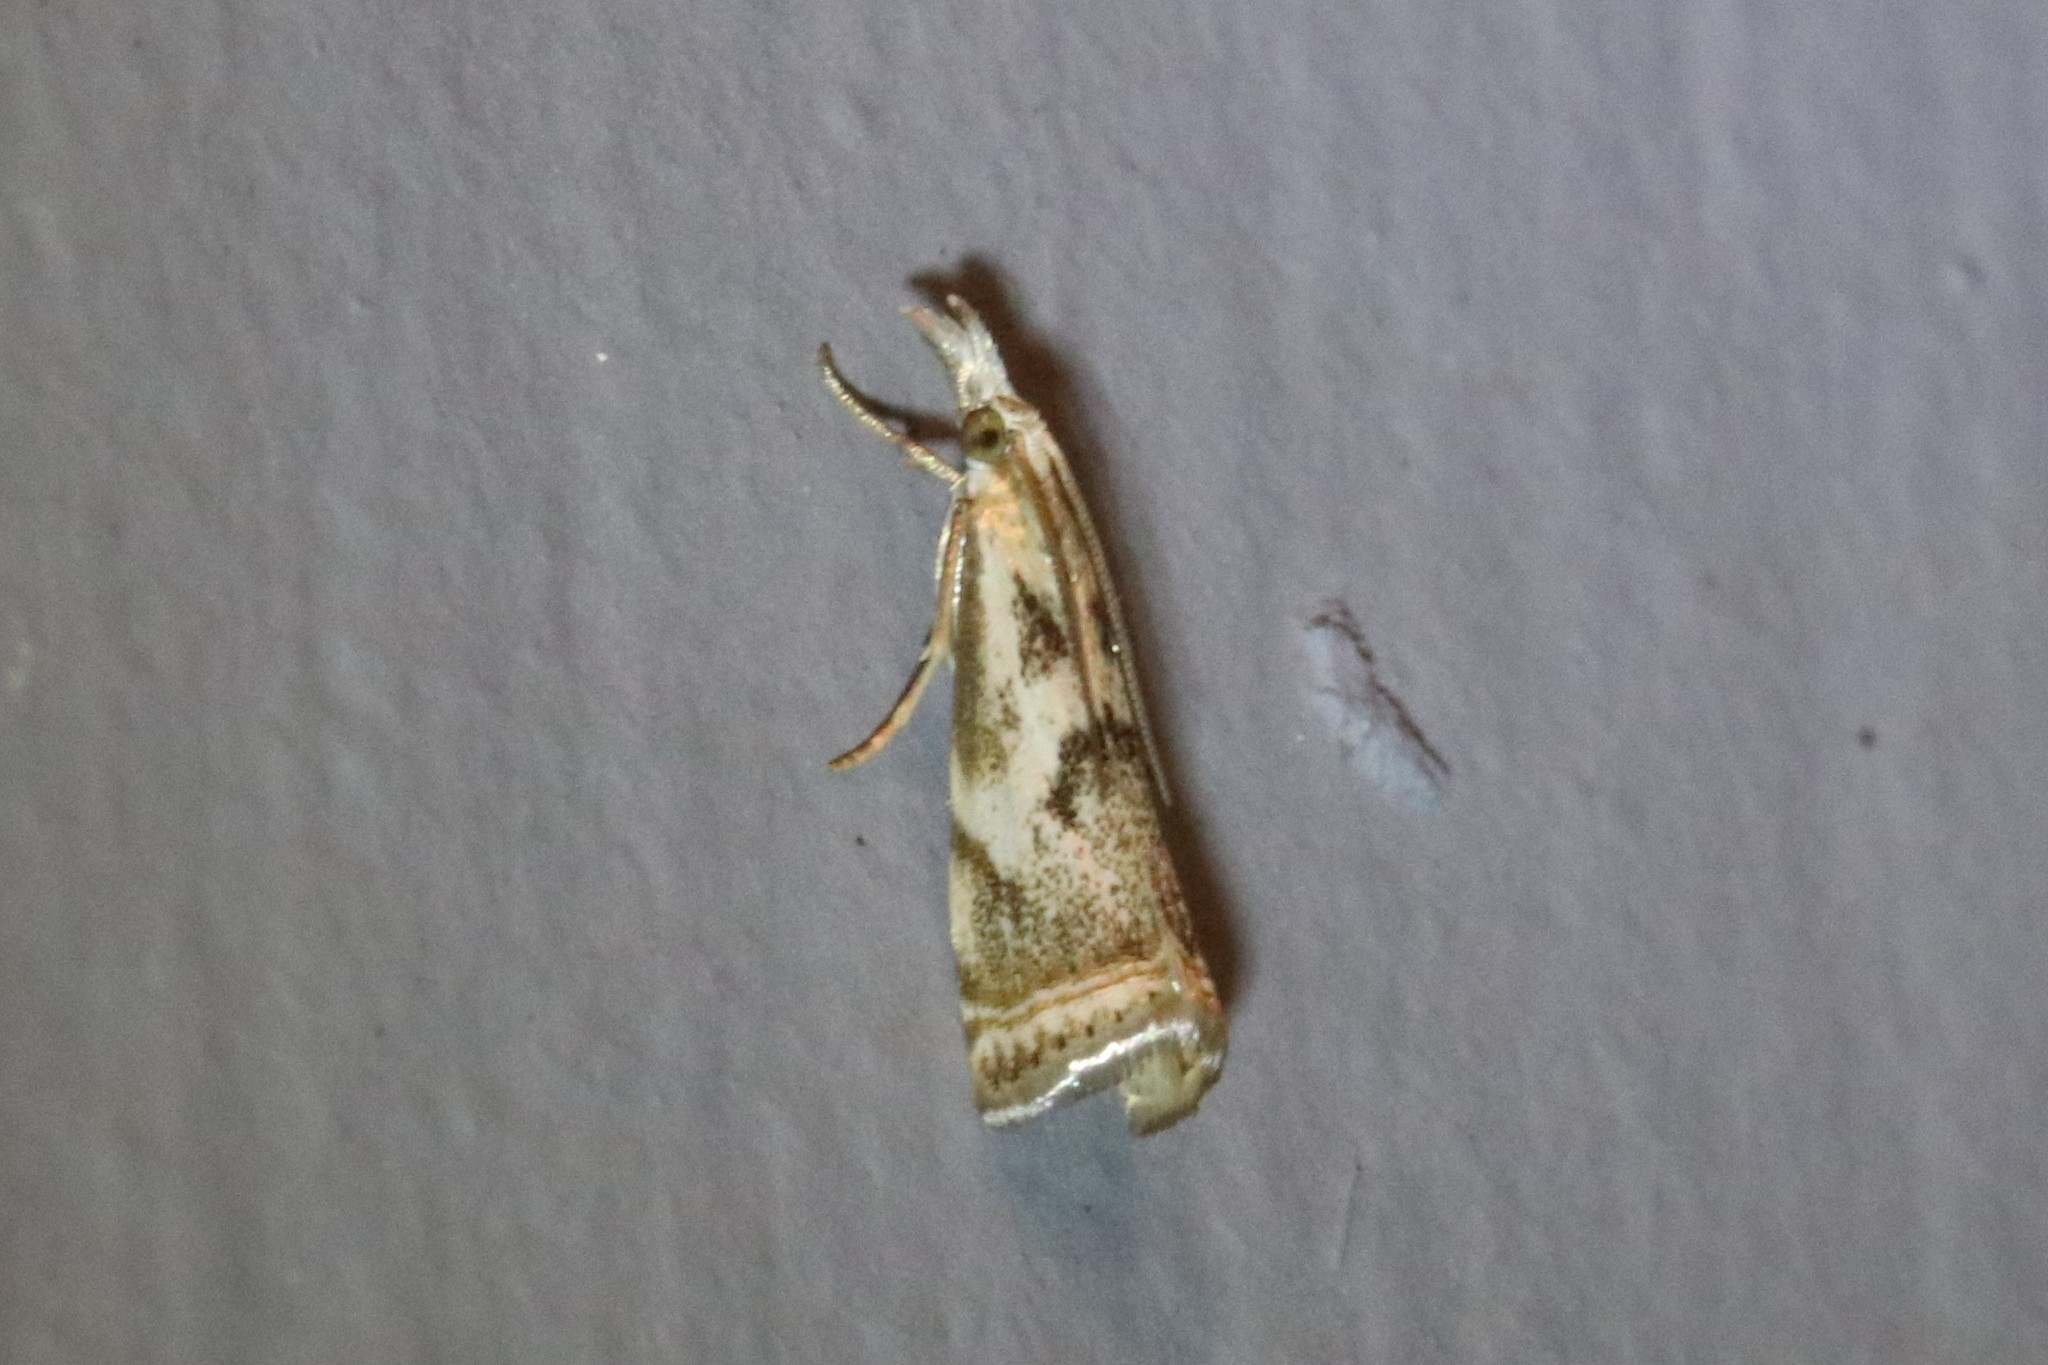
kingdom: Animalia
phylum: Arthropoda
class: Insecta
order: Lepidoptera
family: Crambidae
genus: Microcrambus
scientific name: Microcrambus elegans
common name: Elegant grass-veneer
